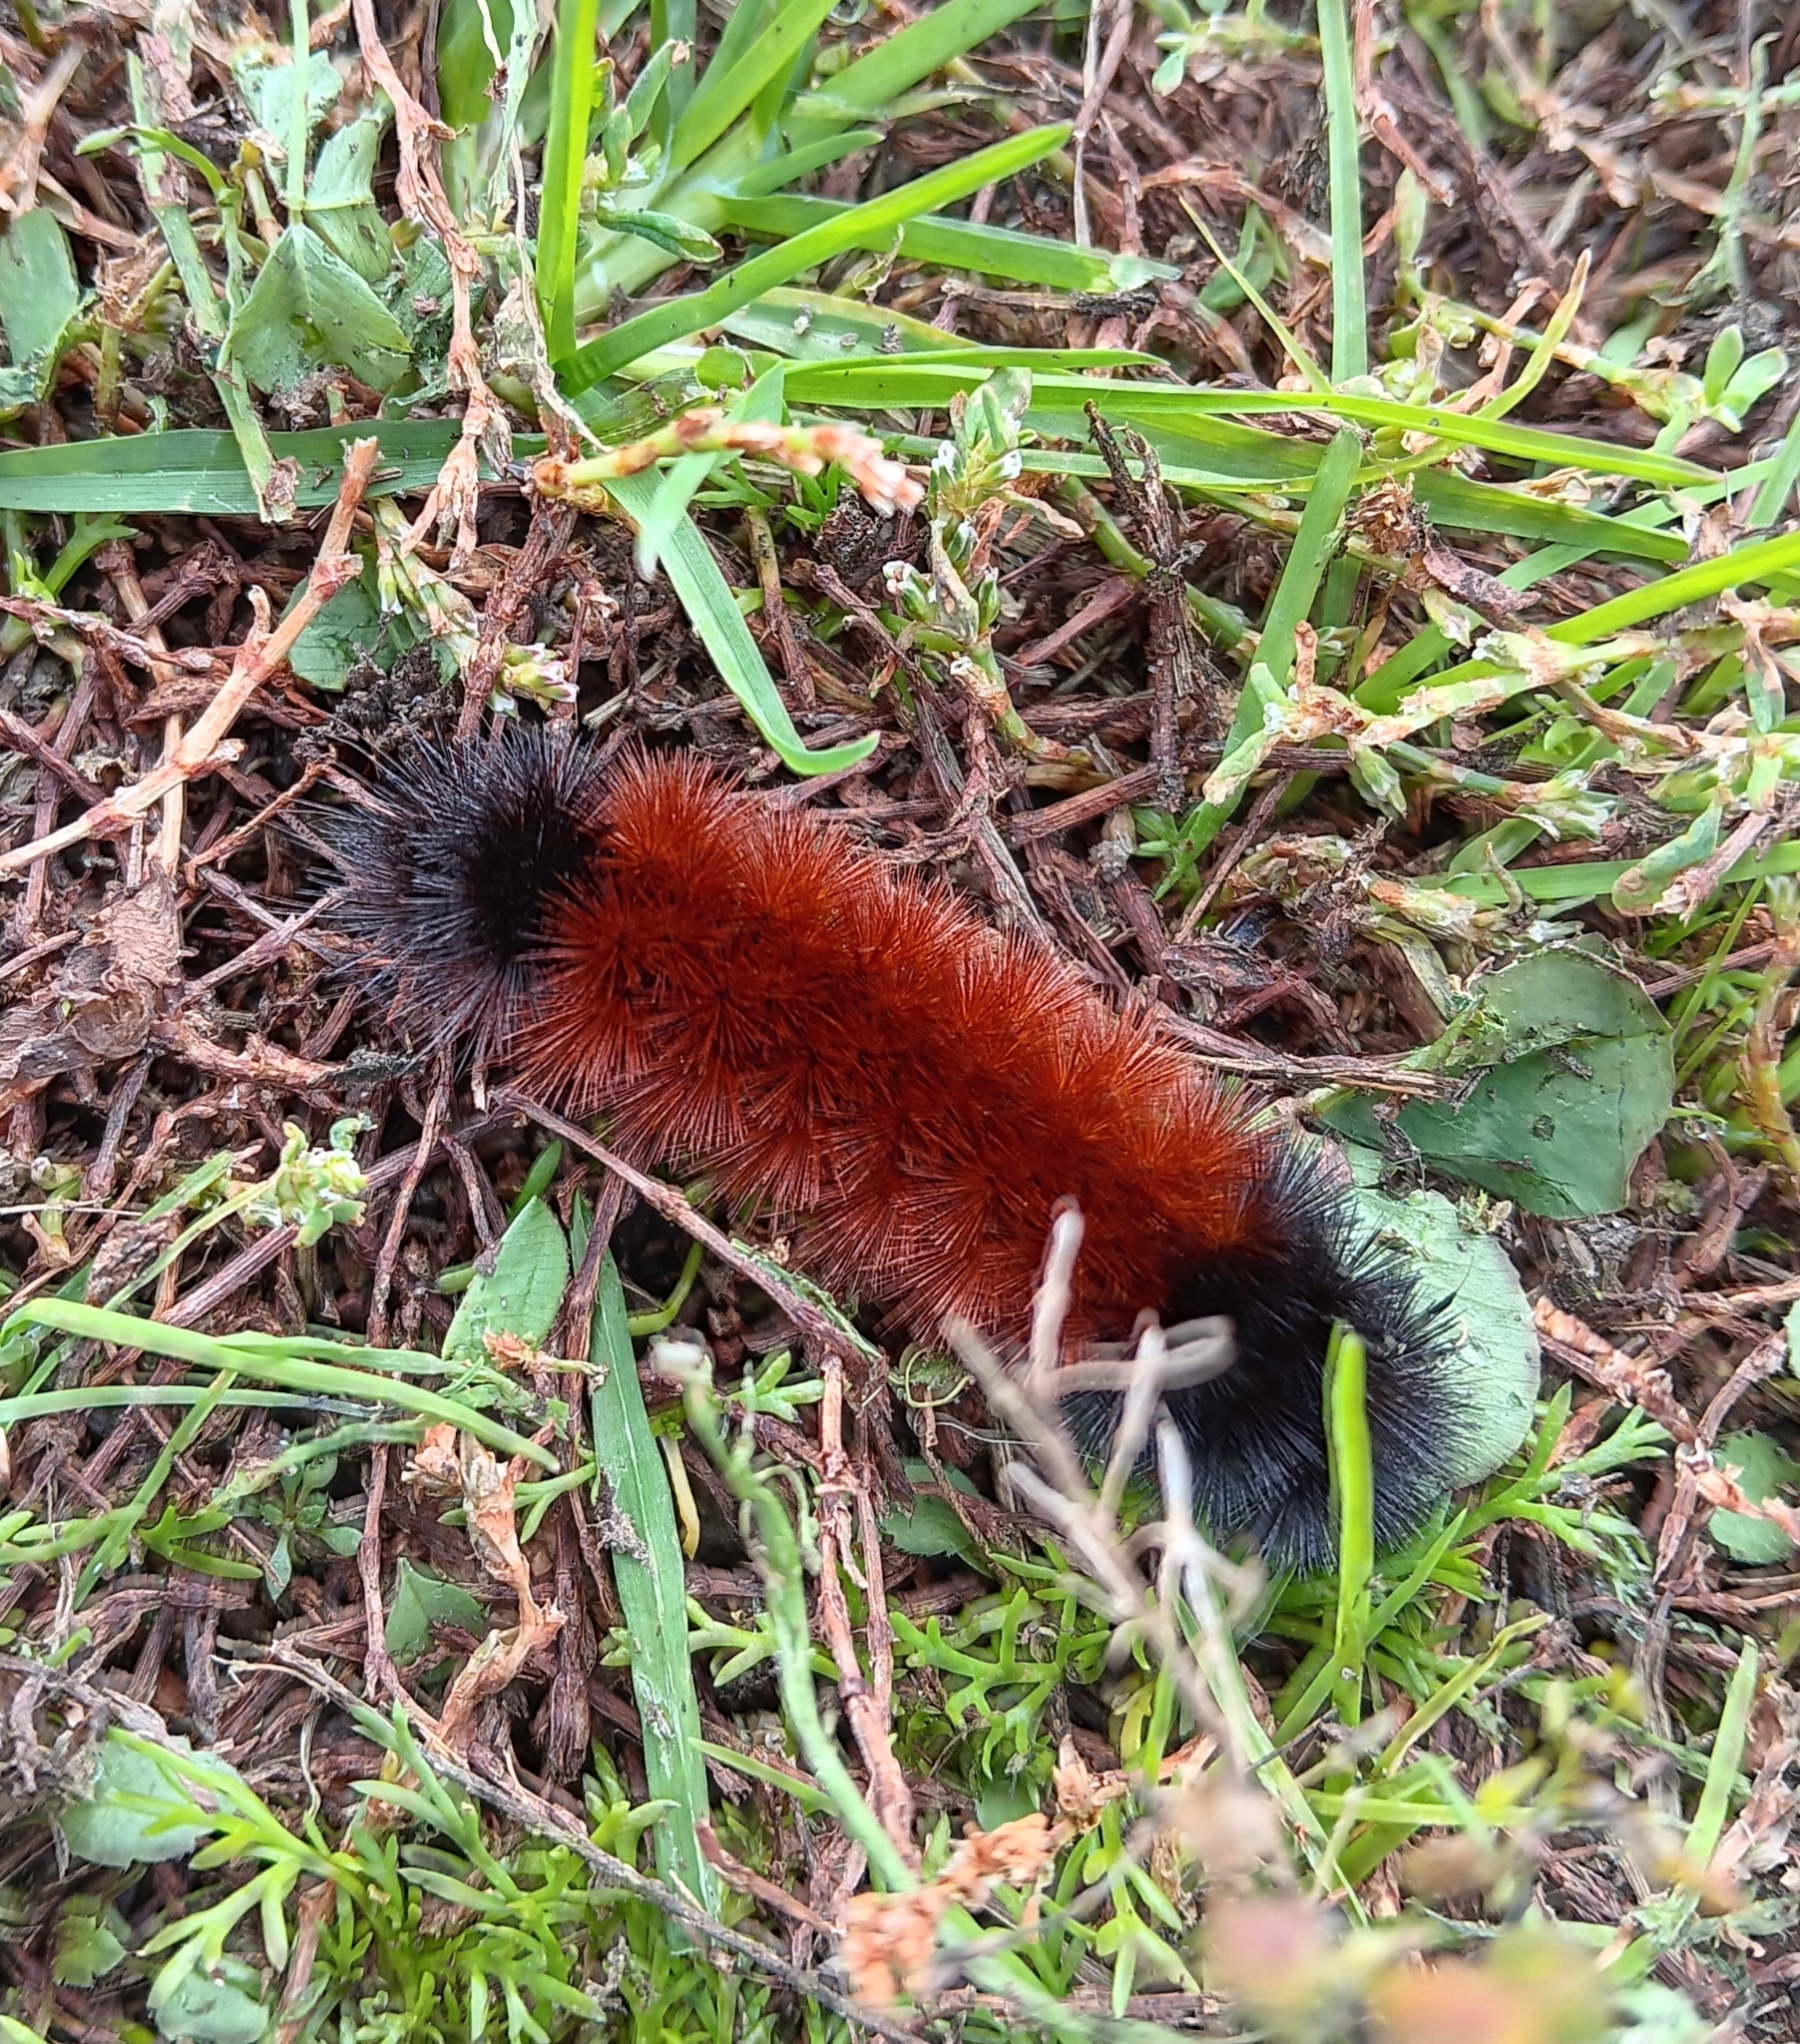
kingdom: Animalia
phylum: Arthropoda
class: Insecta
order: Lepidoptera
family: Erebidae
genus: Pyrrharctia
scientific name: Pyrrharctia isabella
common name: Isabella tiger moth
